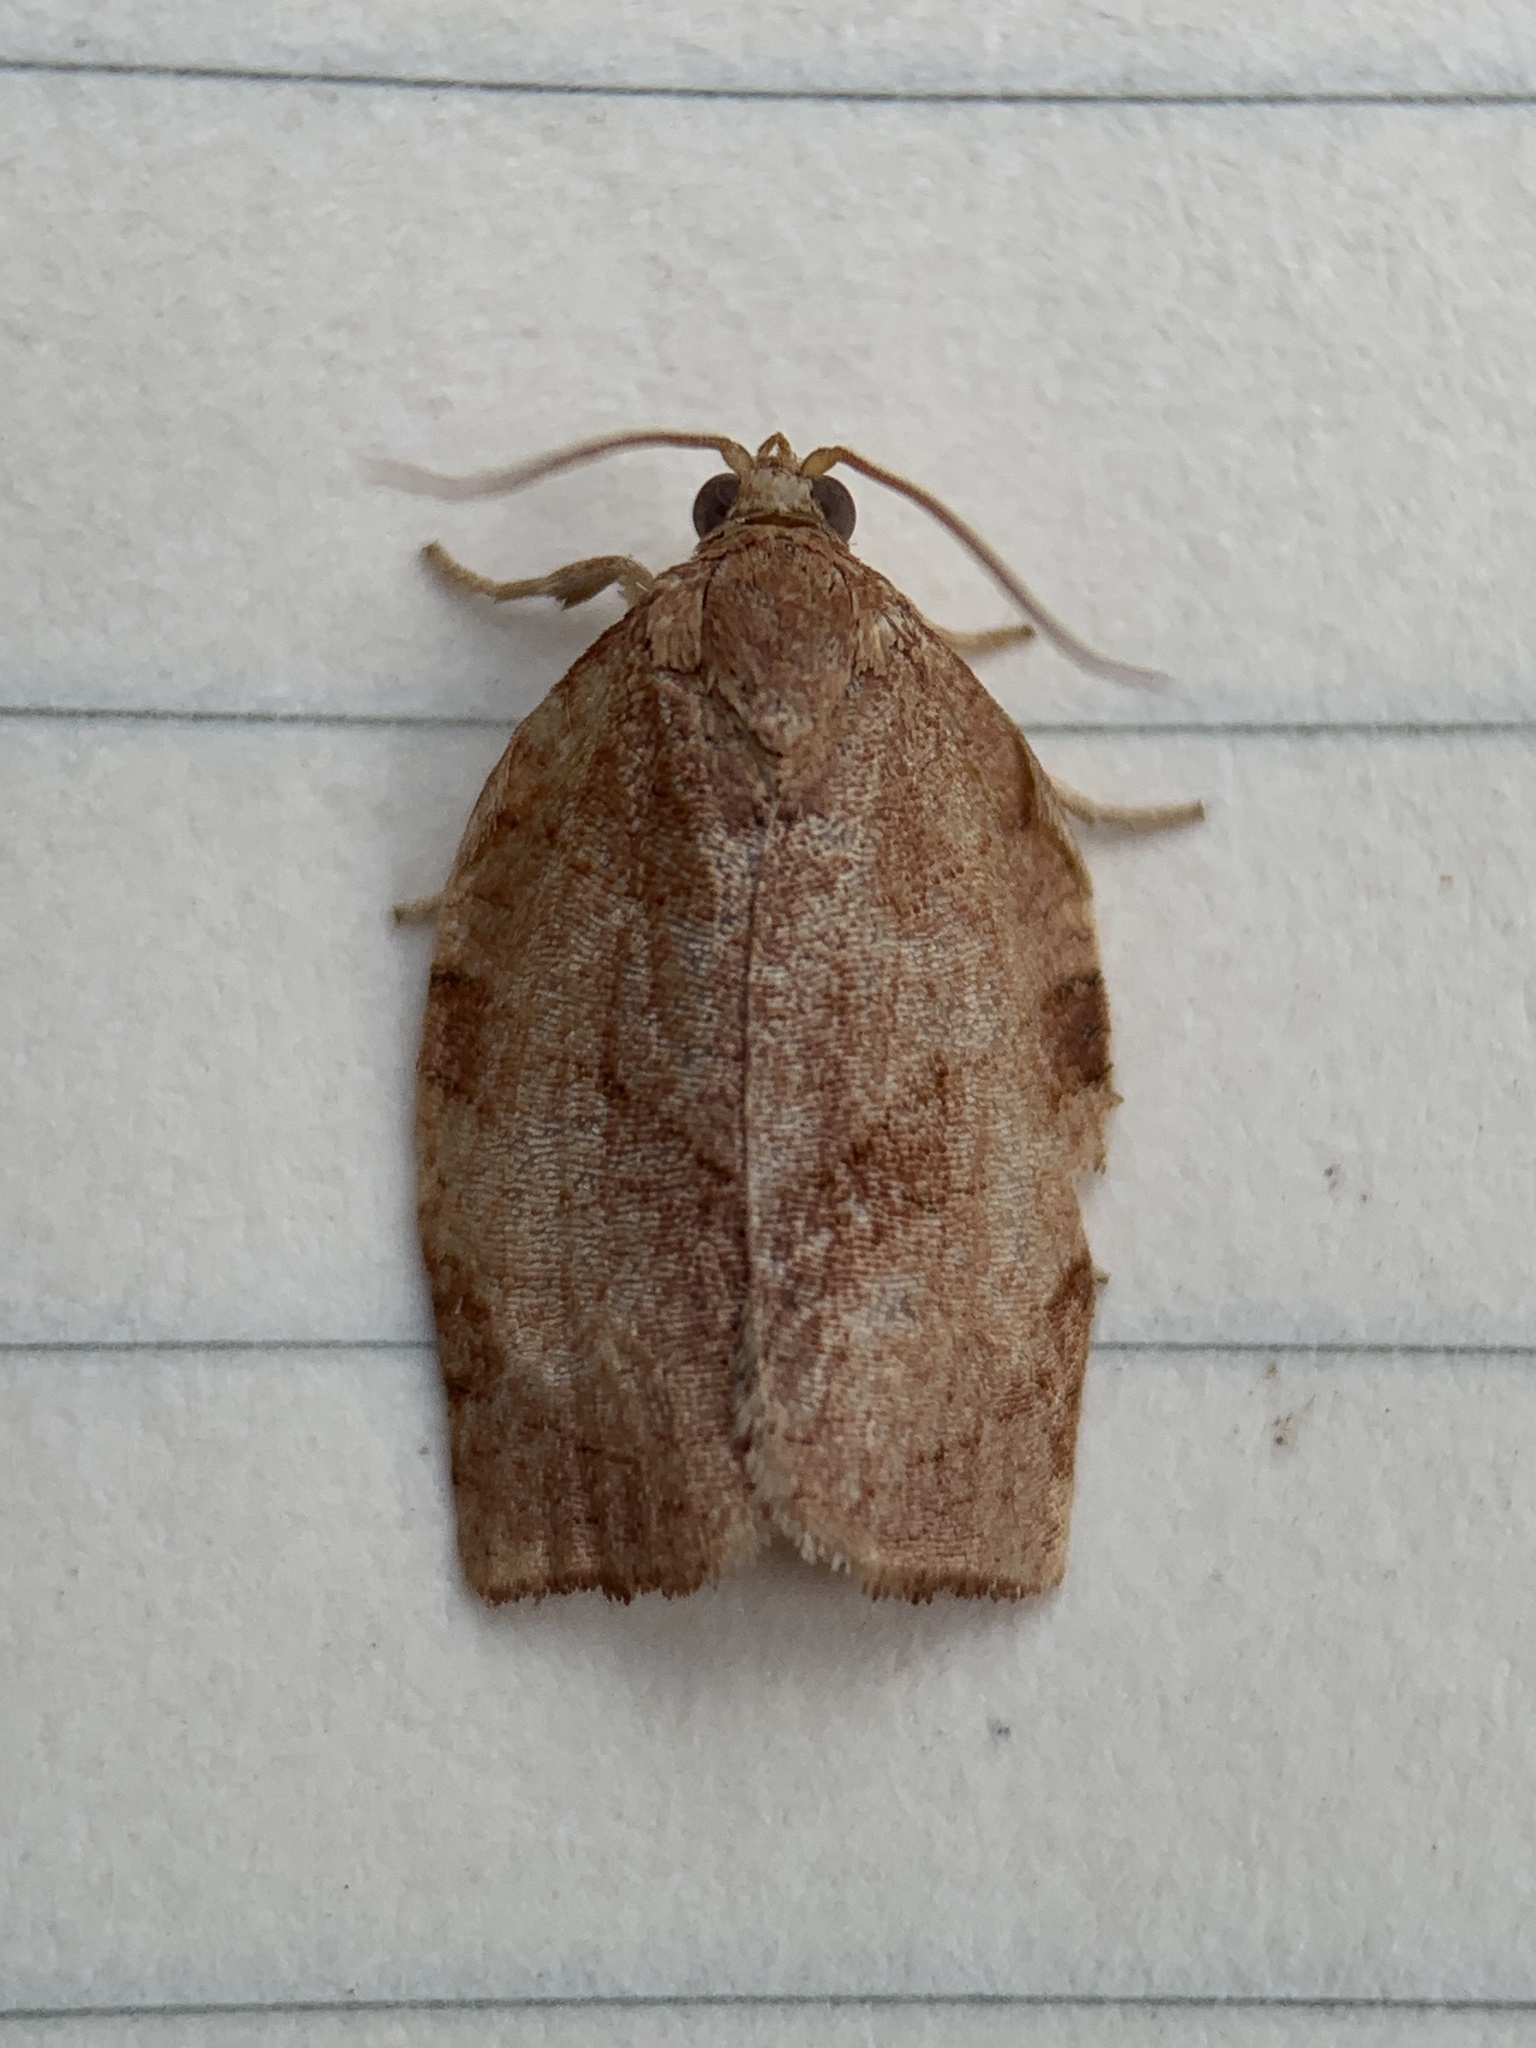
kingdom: Animalia
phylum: Arthropoda
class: Insecta
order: Lepidoptera
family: Tortricidae
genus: Choristoneura
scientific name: Choristoneura rosaceana
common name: Oblique-banded leafroller moth
